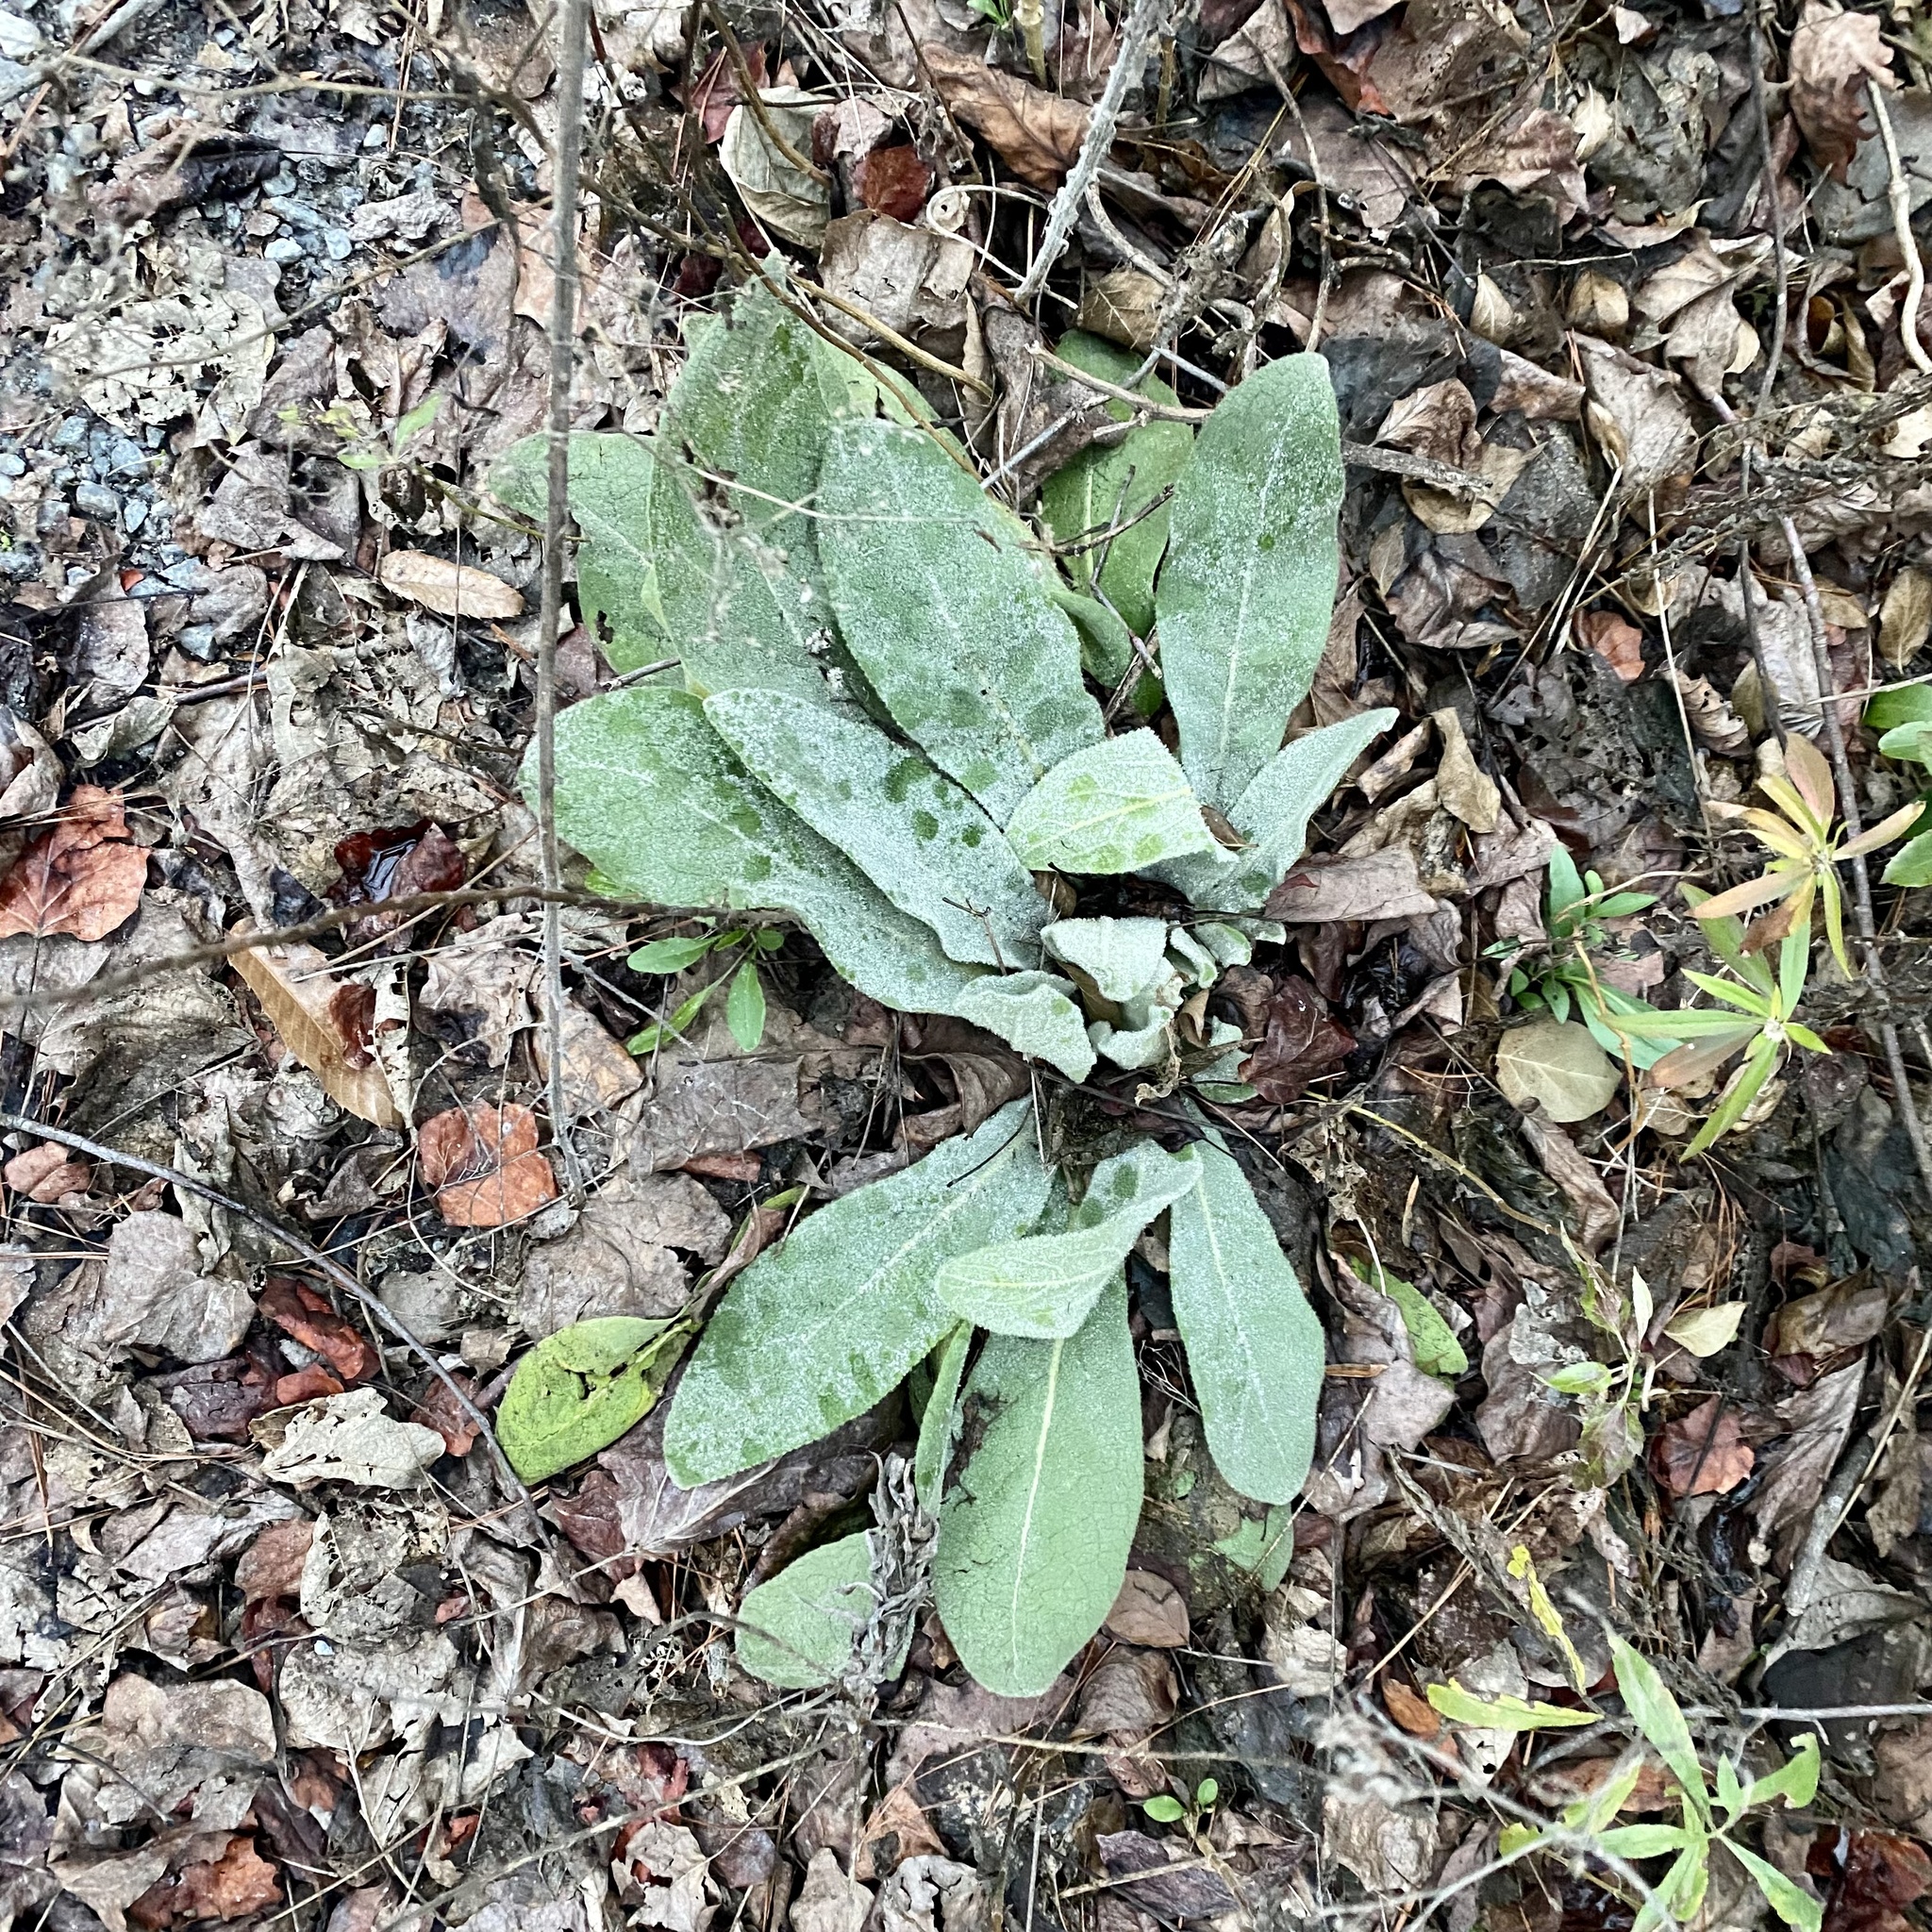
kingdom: Plantae
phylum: Tracheophyta
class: Magnoliopsida
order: Lamiales
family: Scrophulariaceae
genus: Verbascum
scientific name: Verbascum thapsus
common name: Common mullein
